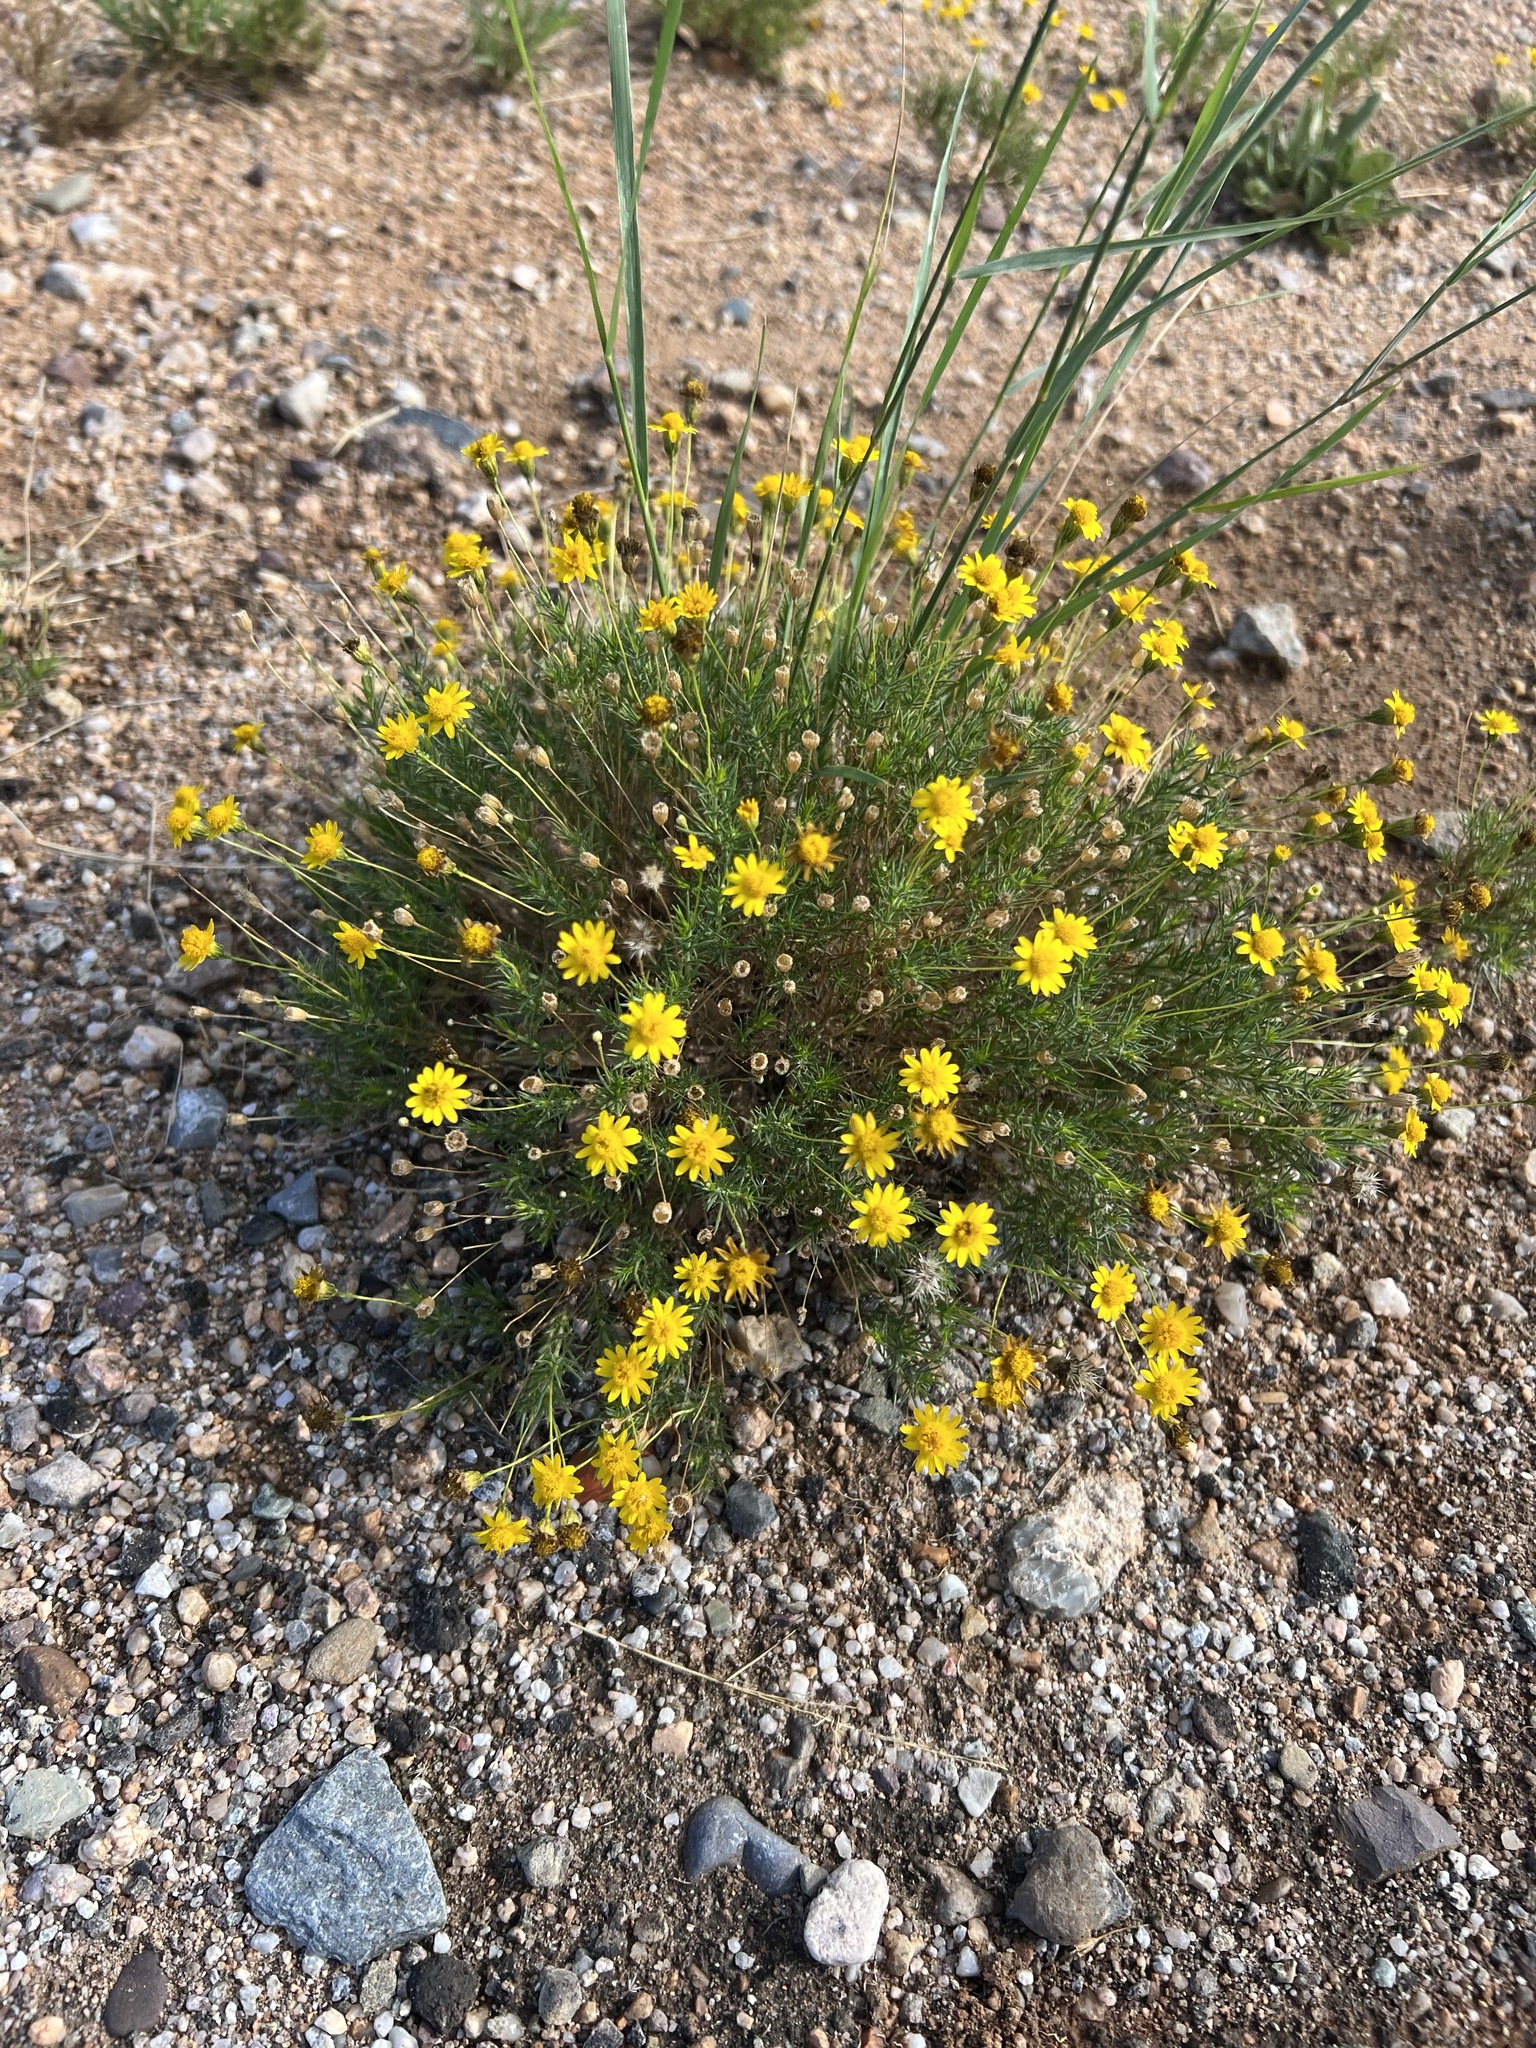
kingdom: Plantae
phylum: Tracheophyta
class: Magnoliopsida
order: Asterales
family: Asteraceae
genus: Thymophylla
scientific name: Thymophylla pentachaeta
